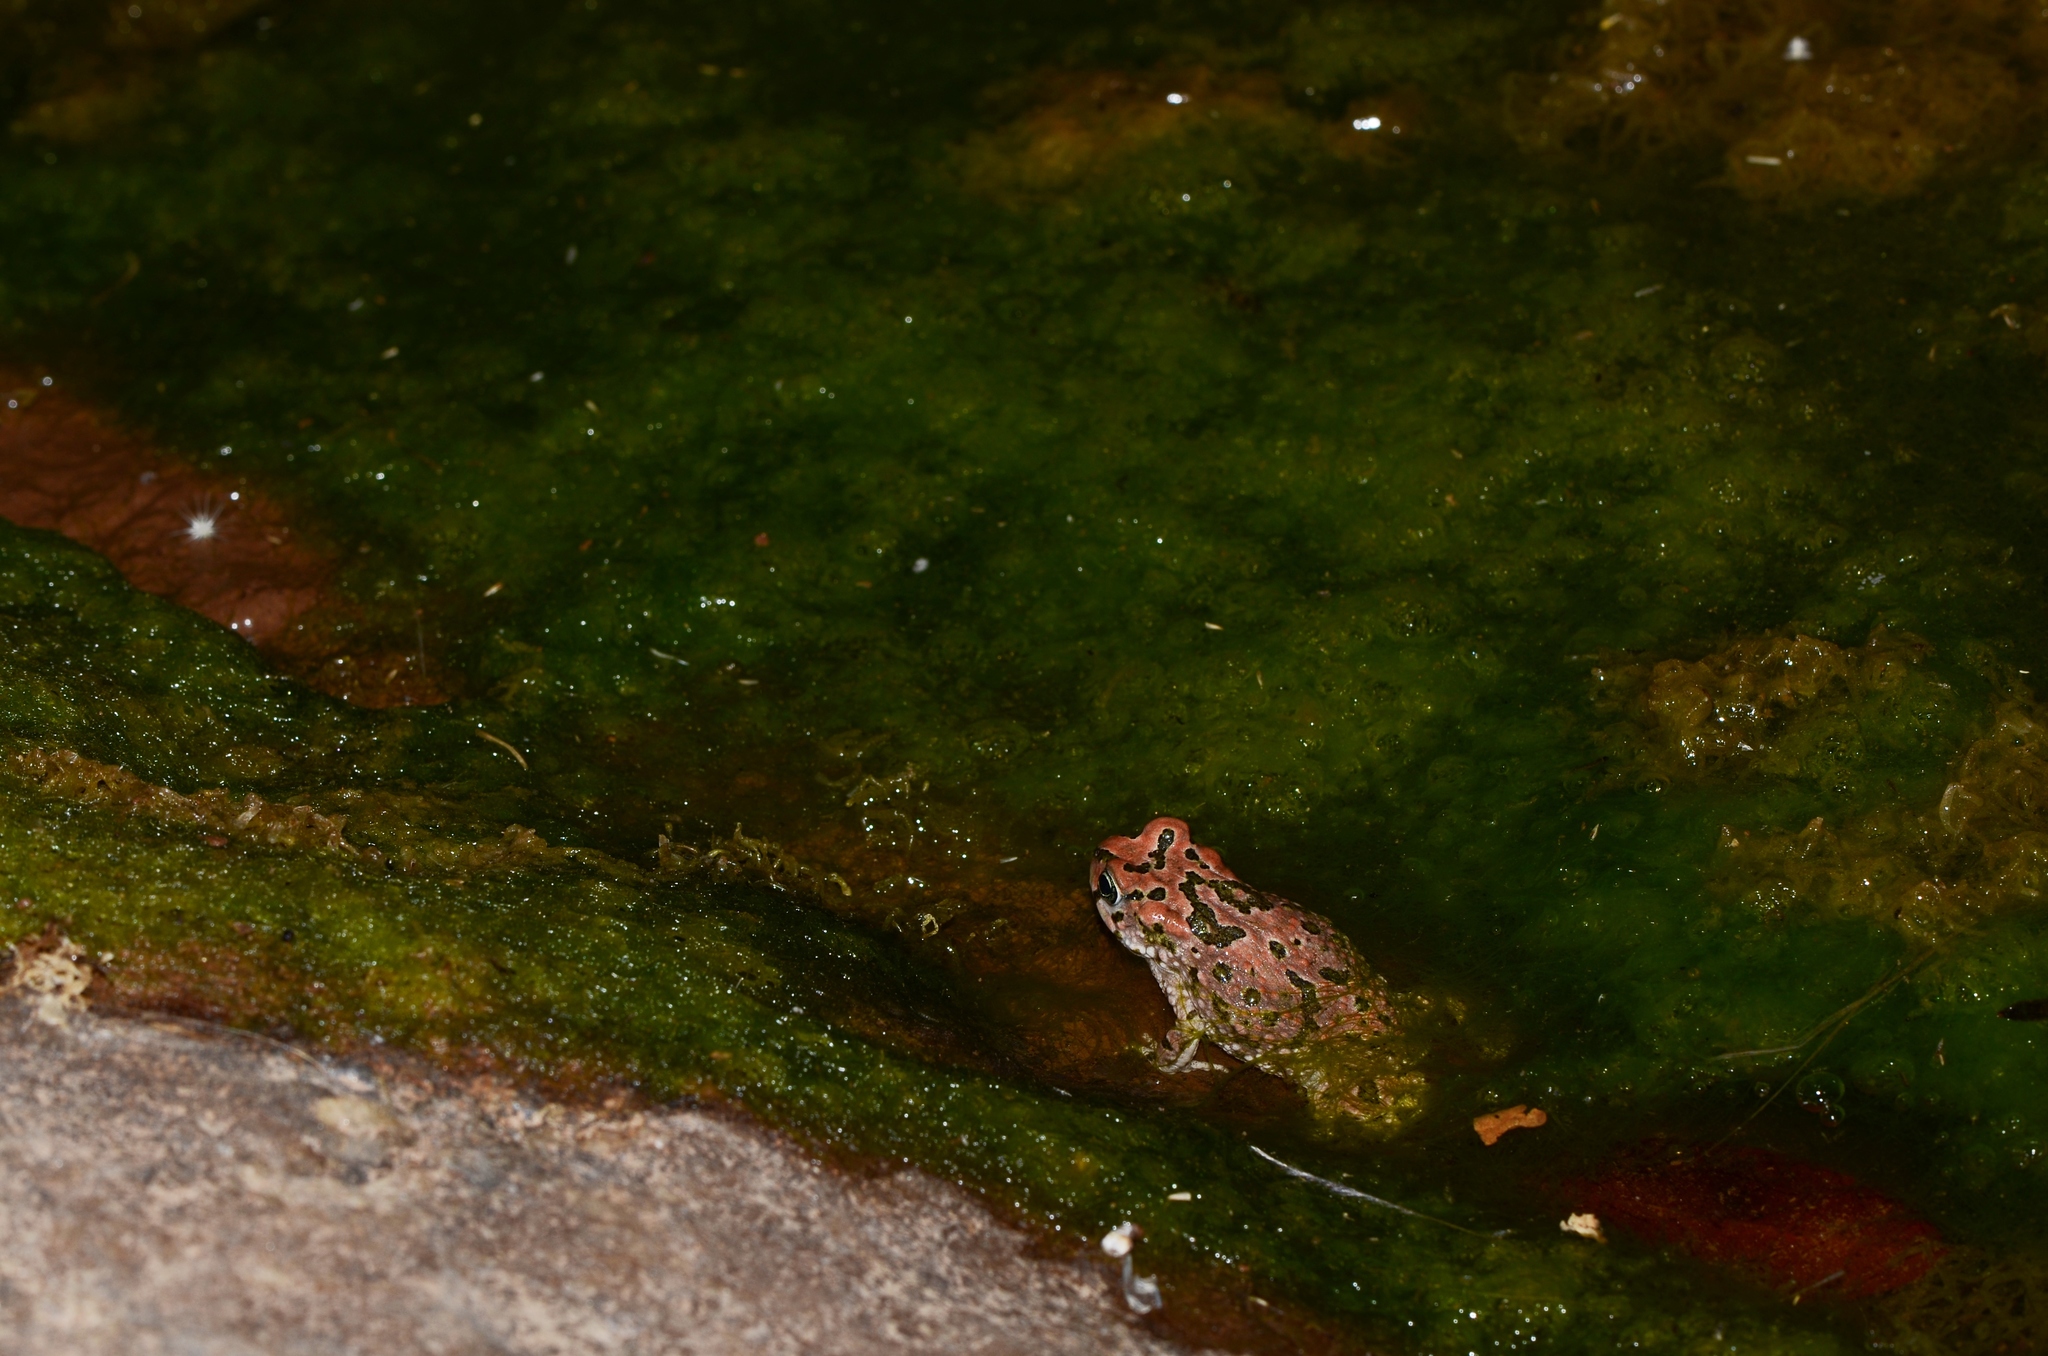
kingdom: Animalia
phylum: Chordata
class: Amphibia
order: Anura
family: Bufonidae
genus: Vandijkophrynus
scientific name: Vandijkophrynus robinsoni
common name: Paradise toad
